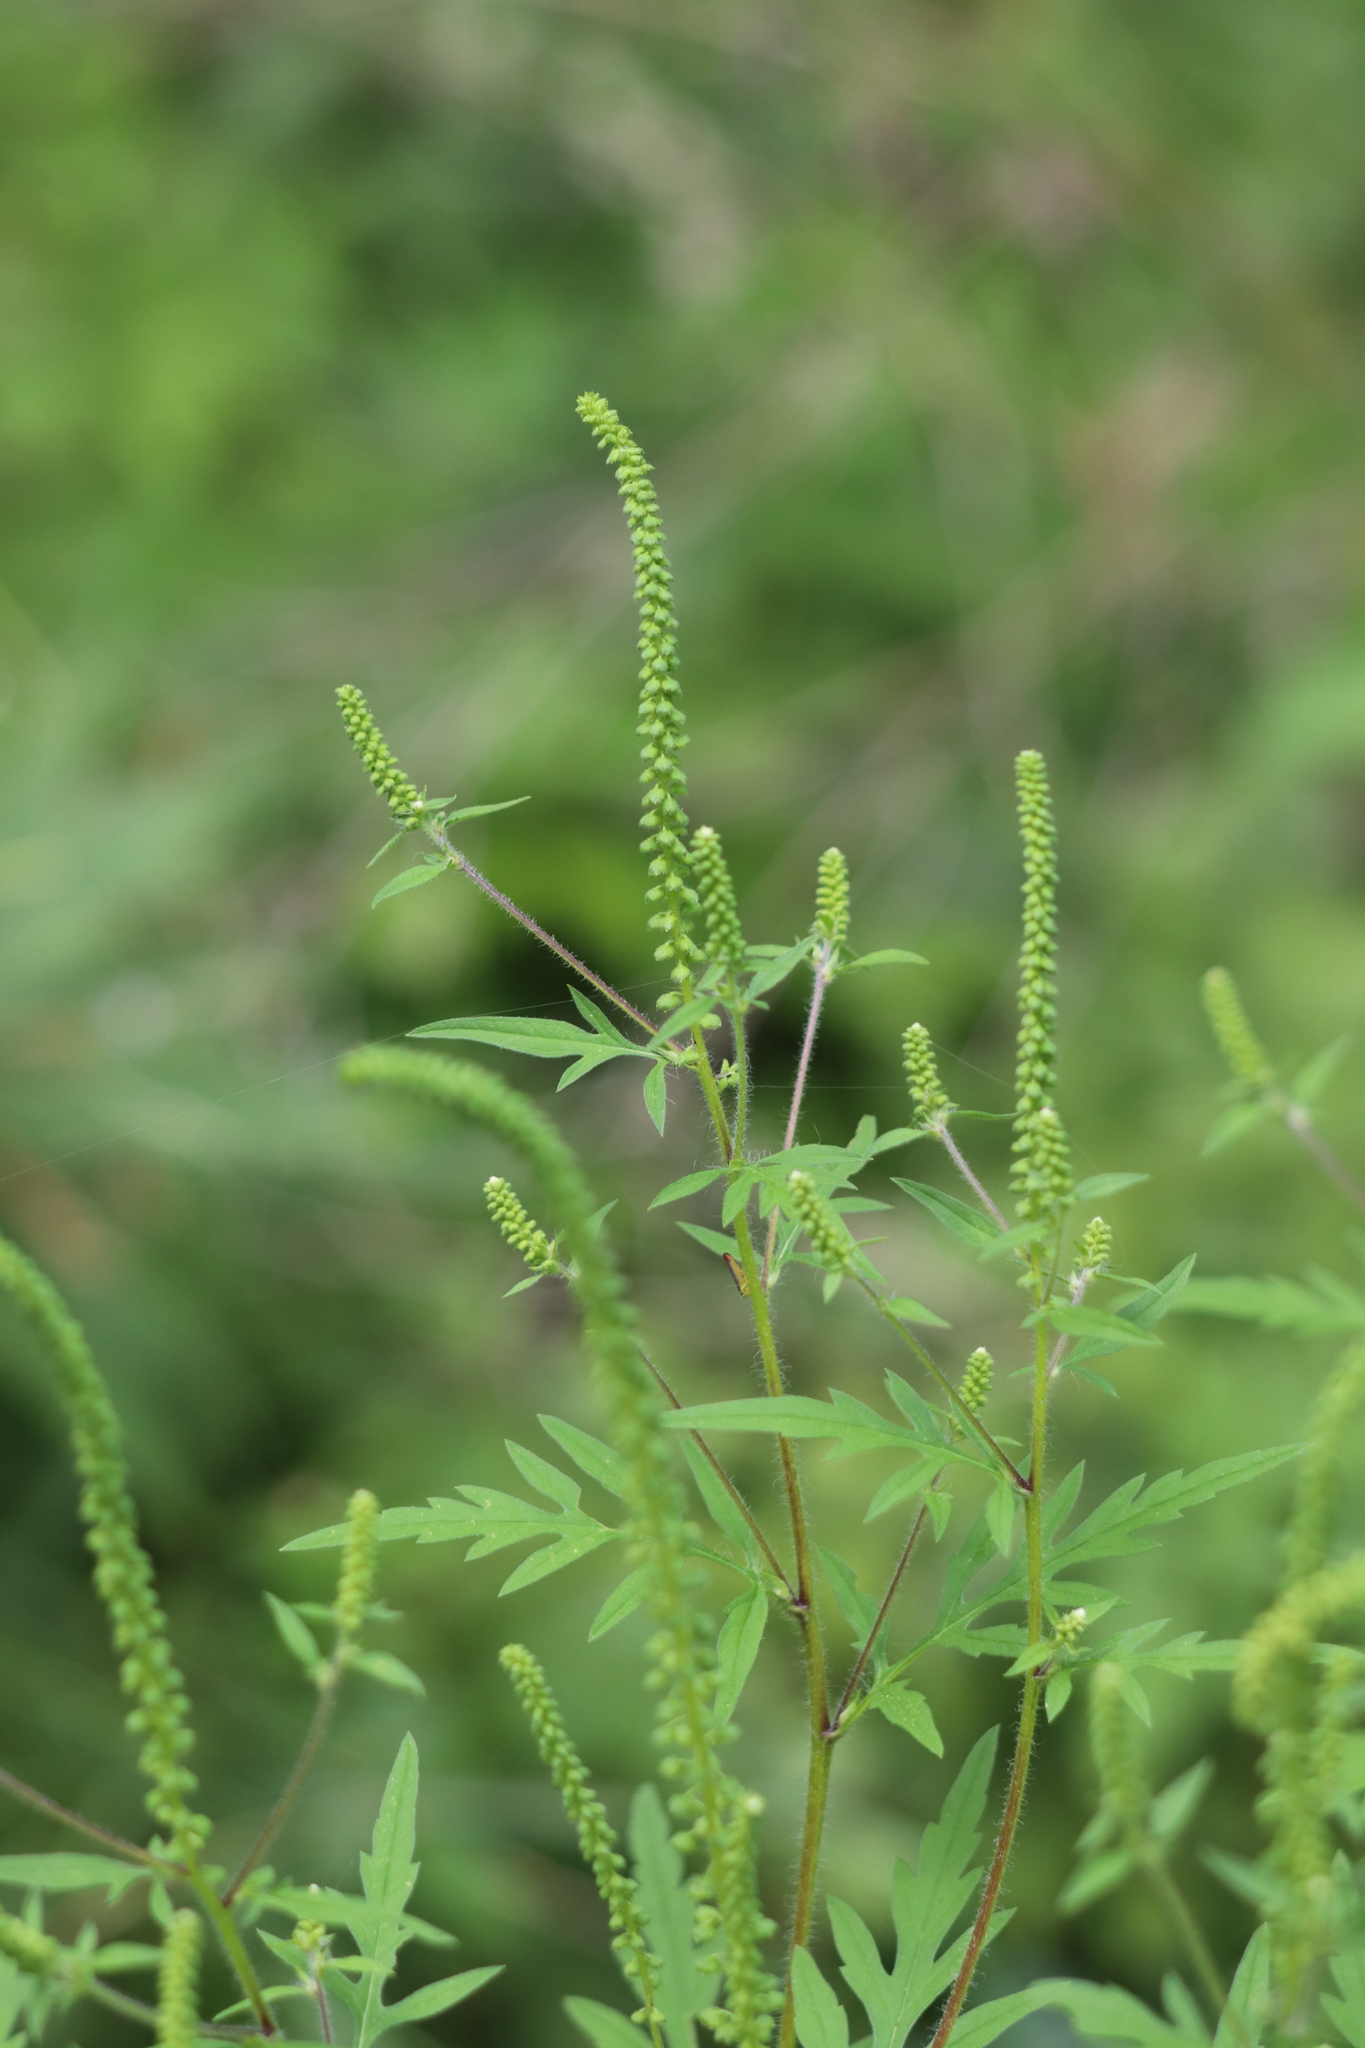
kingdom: Plantae
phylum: Tracheophyta
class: Magnoliopsida
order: Asterales
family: Asteraceae
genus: Ambrosia
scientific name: Ambrosia artemisiifolia
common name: Annual ragweed
